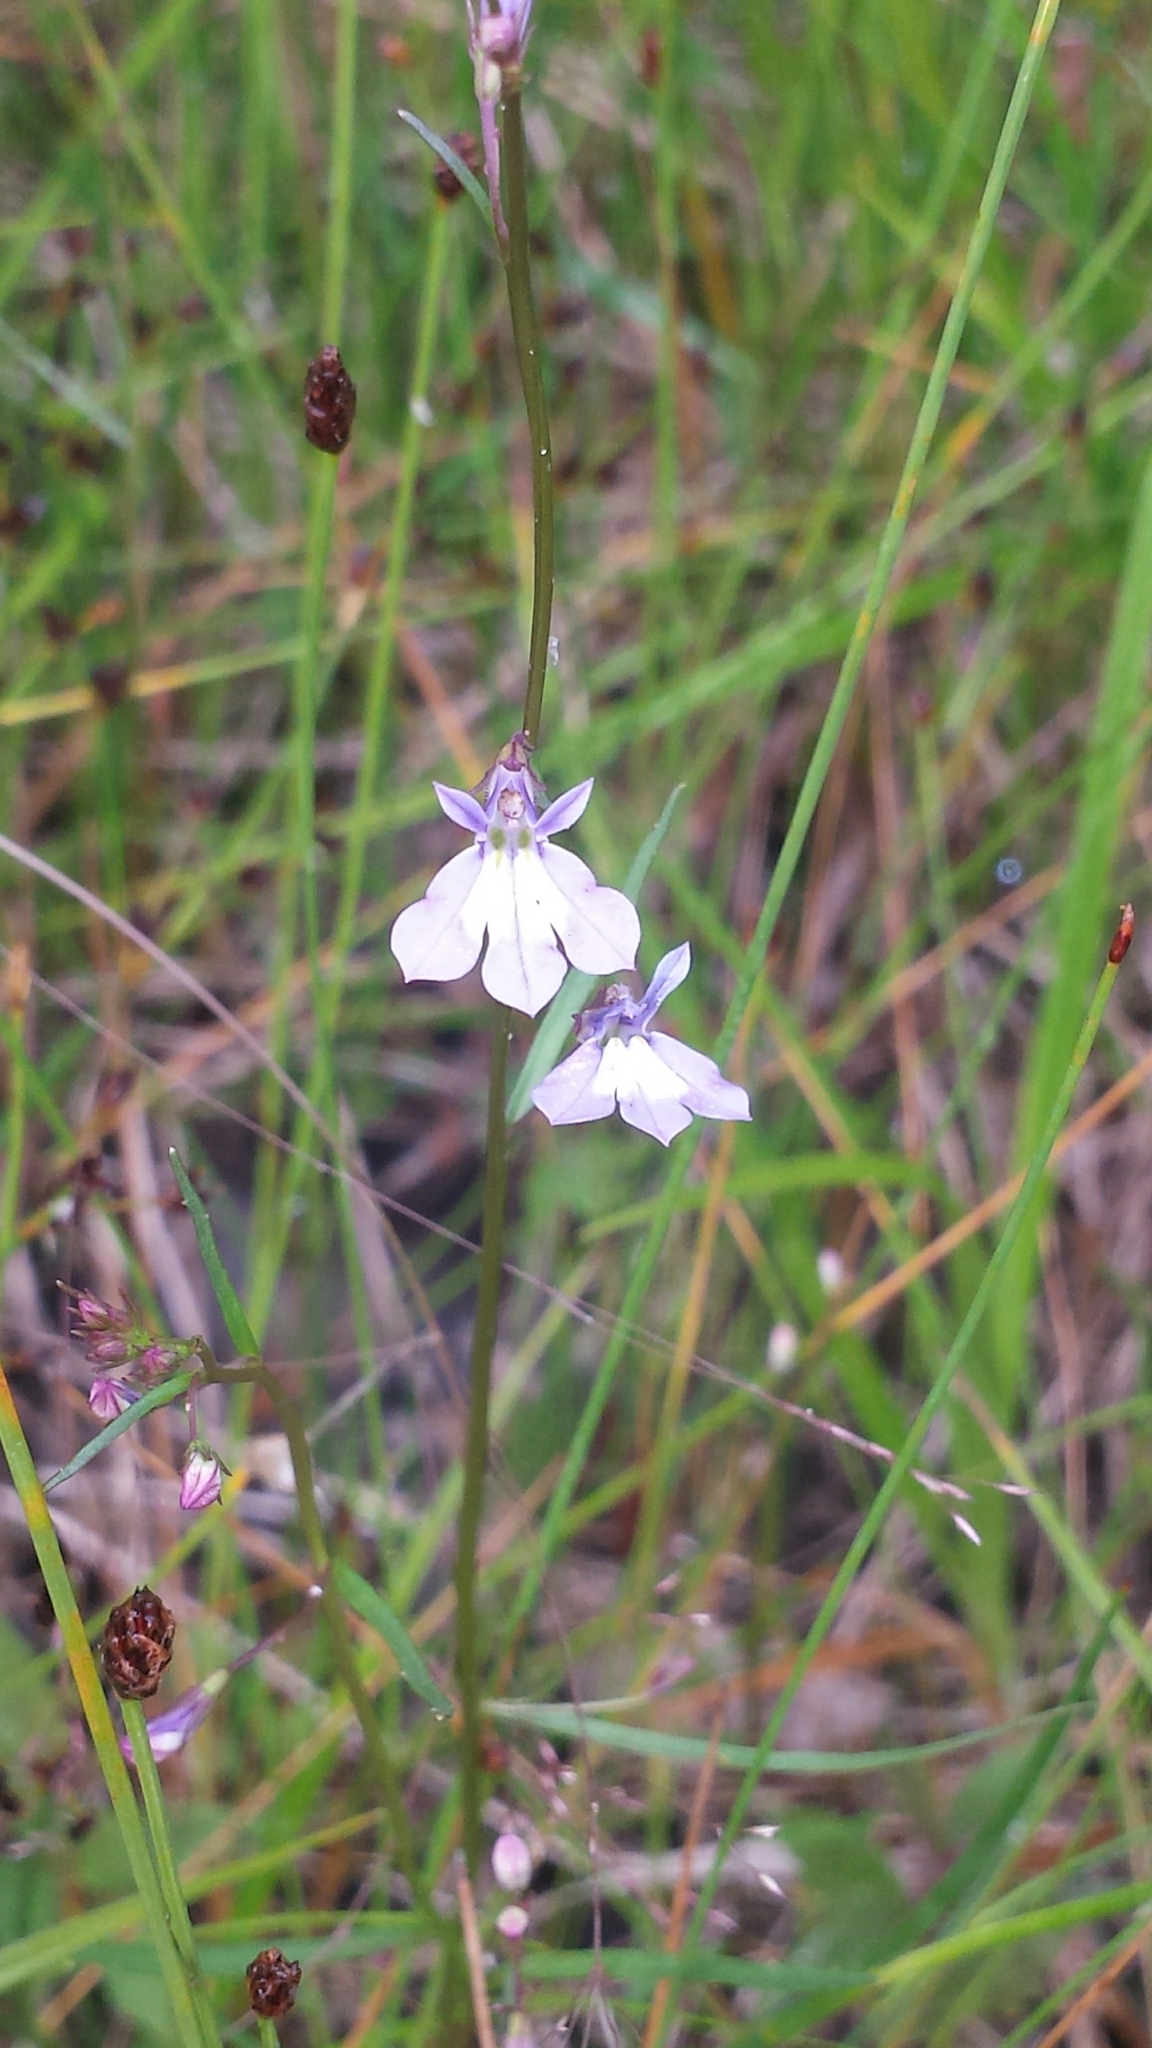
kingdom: Plantae
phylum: Tracheophyta
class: Magnoliopsida
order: Asterales
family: Campanulaceae
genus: Lobelia
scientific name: Lobelia kalmii
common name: Kalm's lobelia
